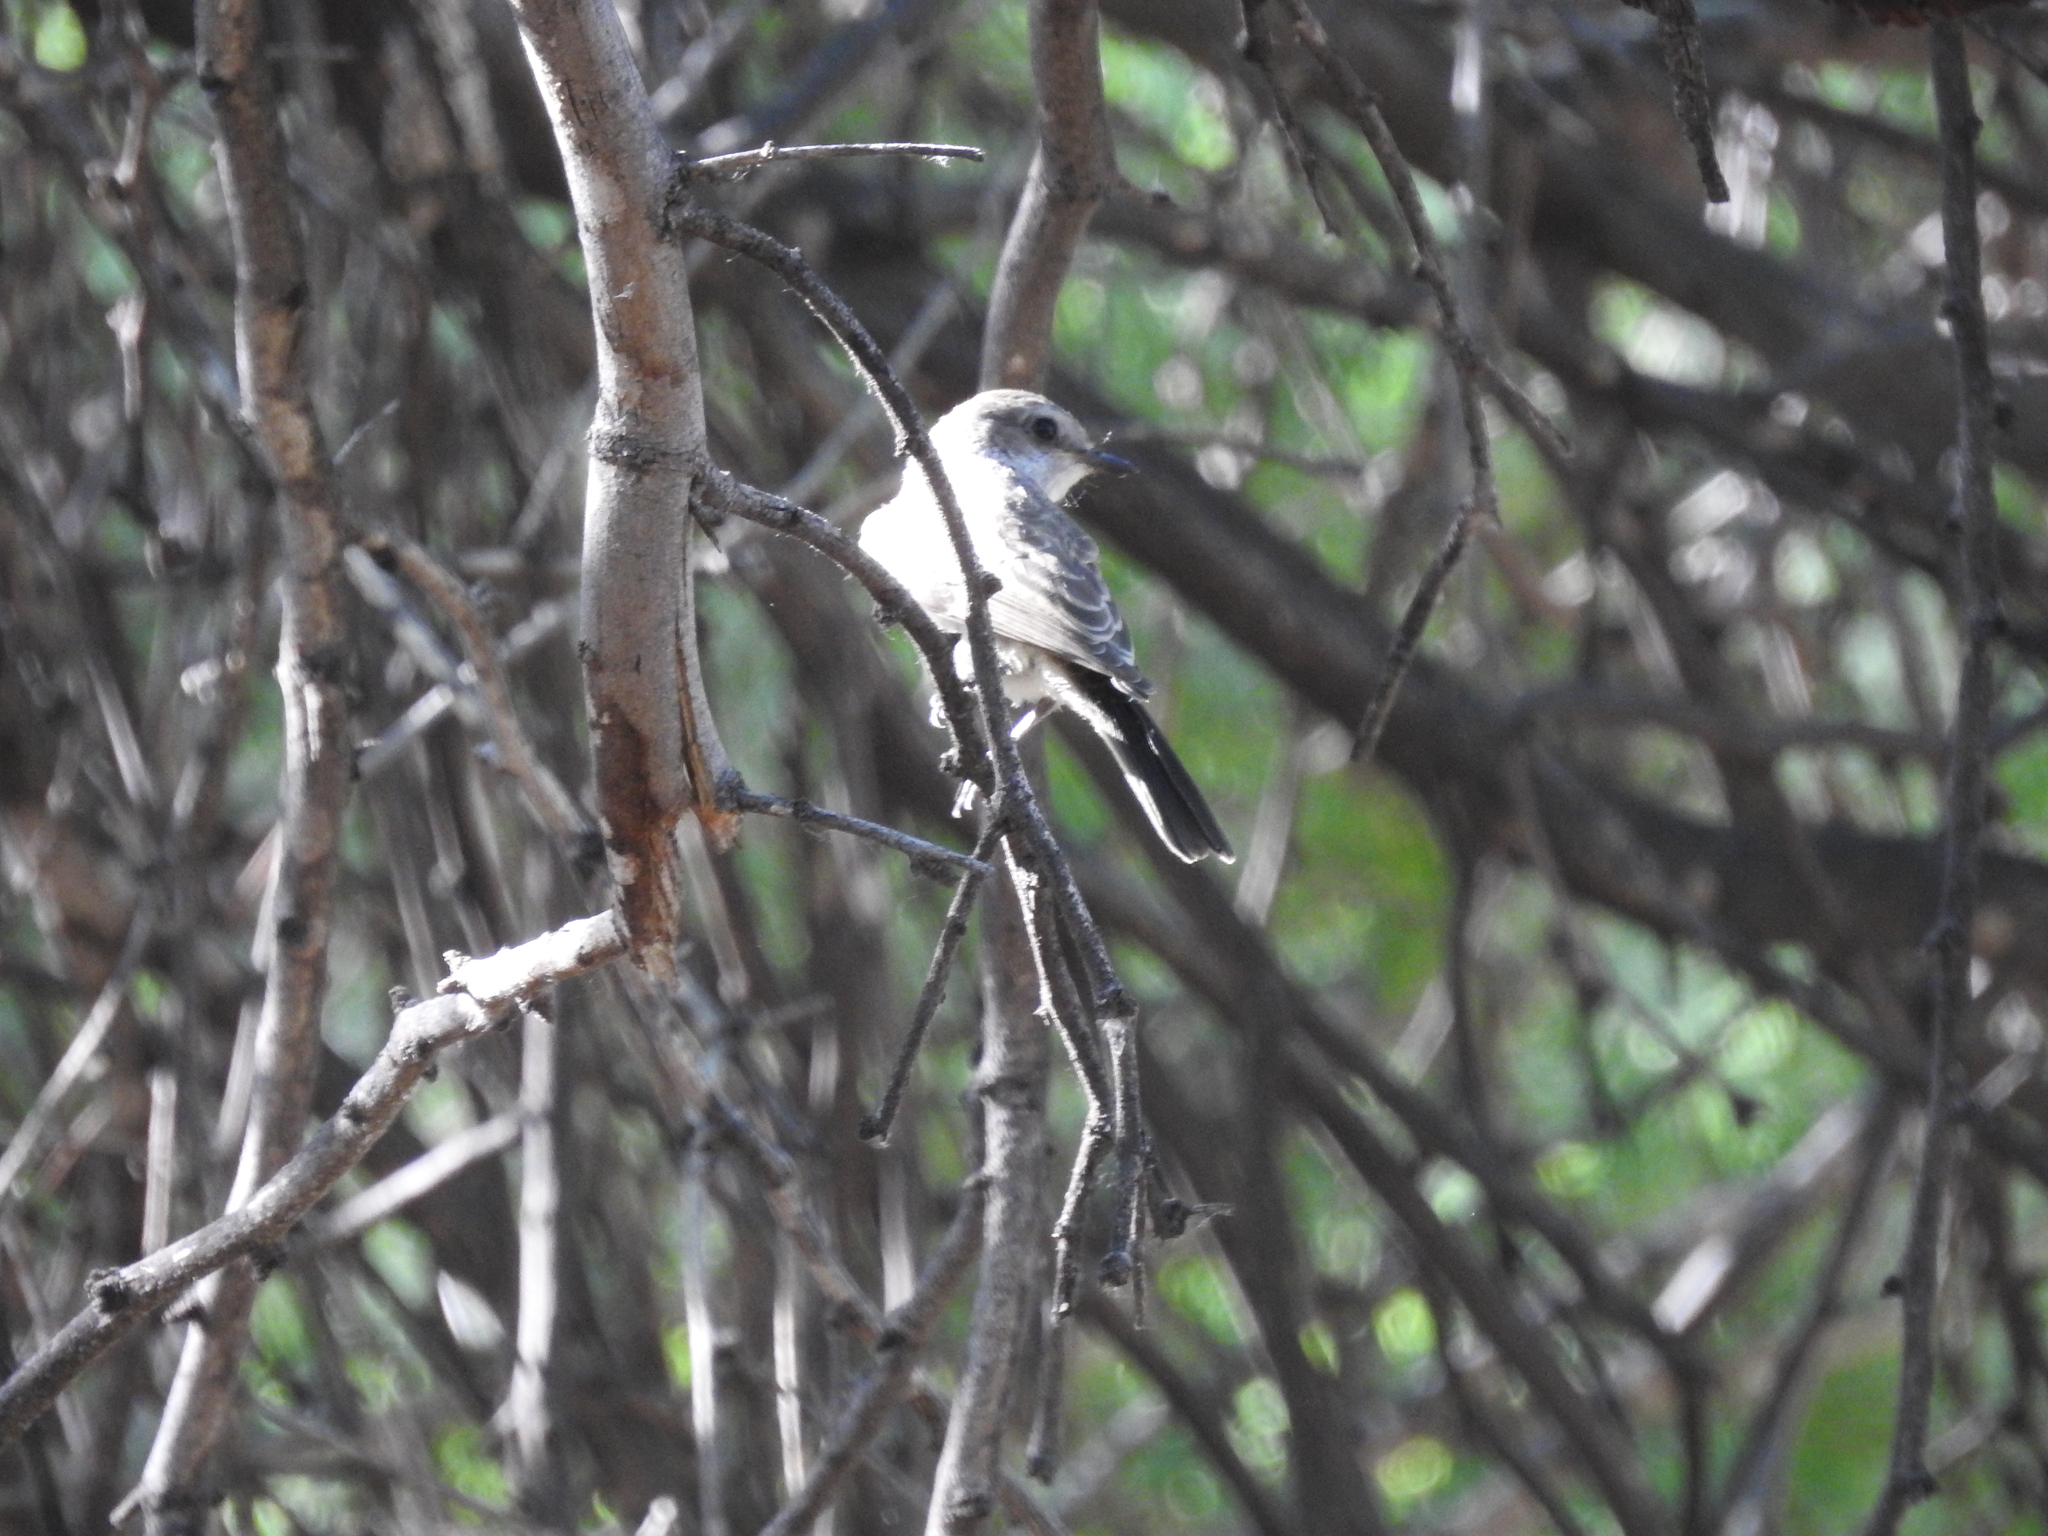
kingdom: Animalia
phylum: Chordata
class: Aves
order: Passeriformes
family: Tyrannidae
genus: Pyrocephalus
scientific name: Pyrocephalus rubinus
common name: Vermilion flycatcher
